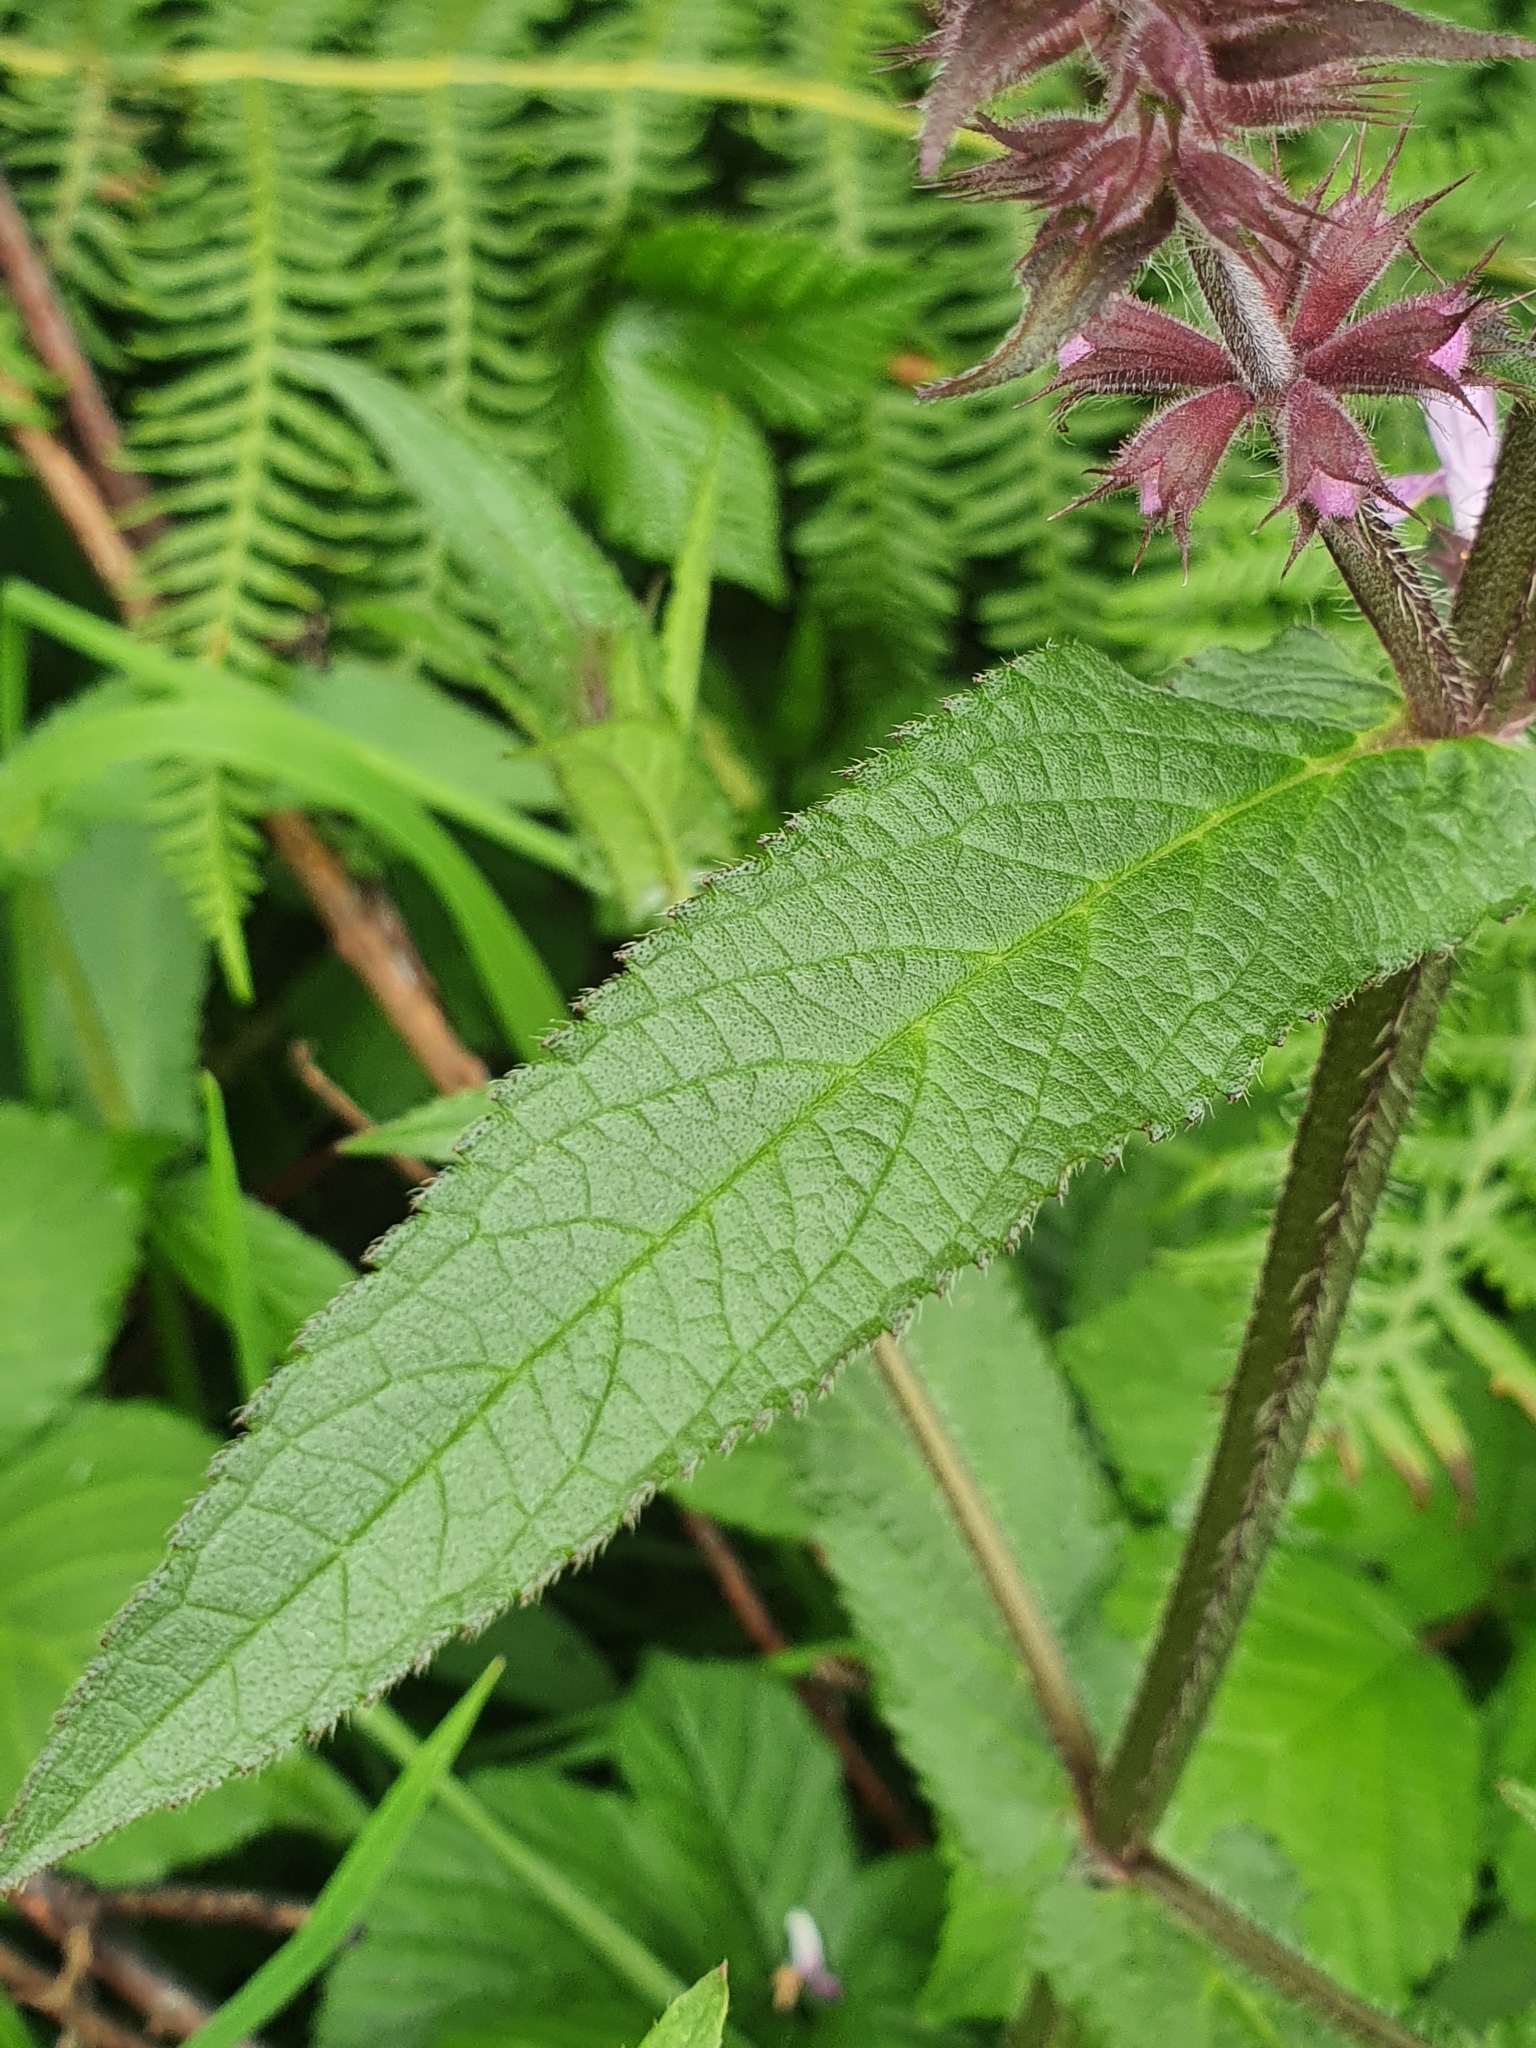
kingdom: Plantae
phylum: Tracheophyta
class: Magnoliopsida
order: Lamiales
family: Lamiaceae
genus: Stachys
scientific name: Stachys palustris
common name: Marsh woundwort
